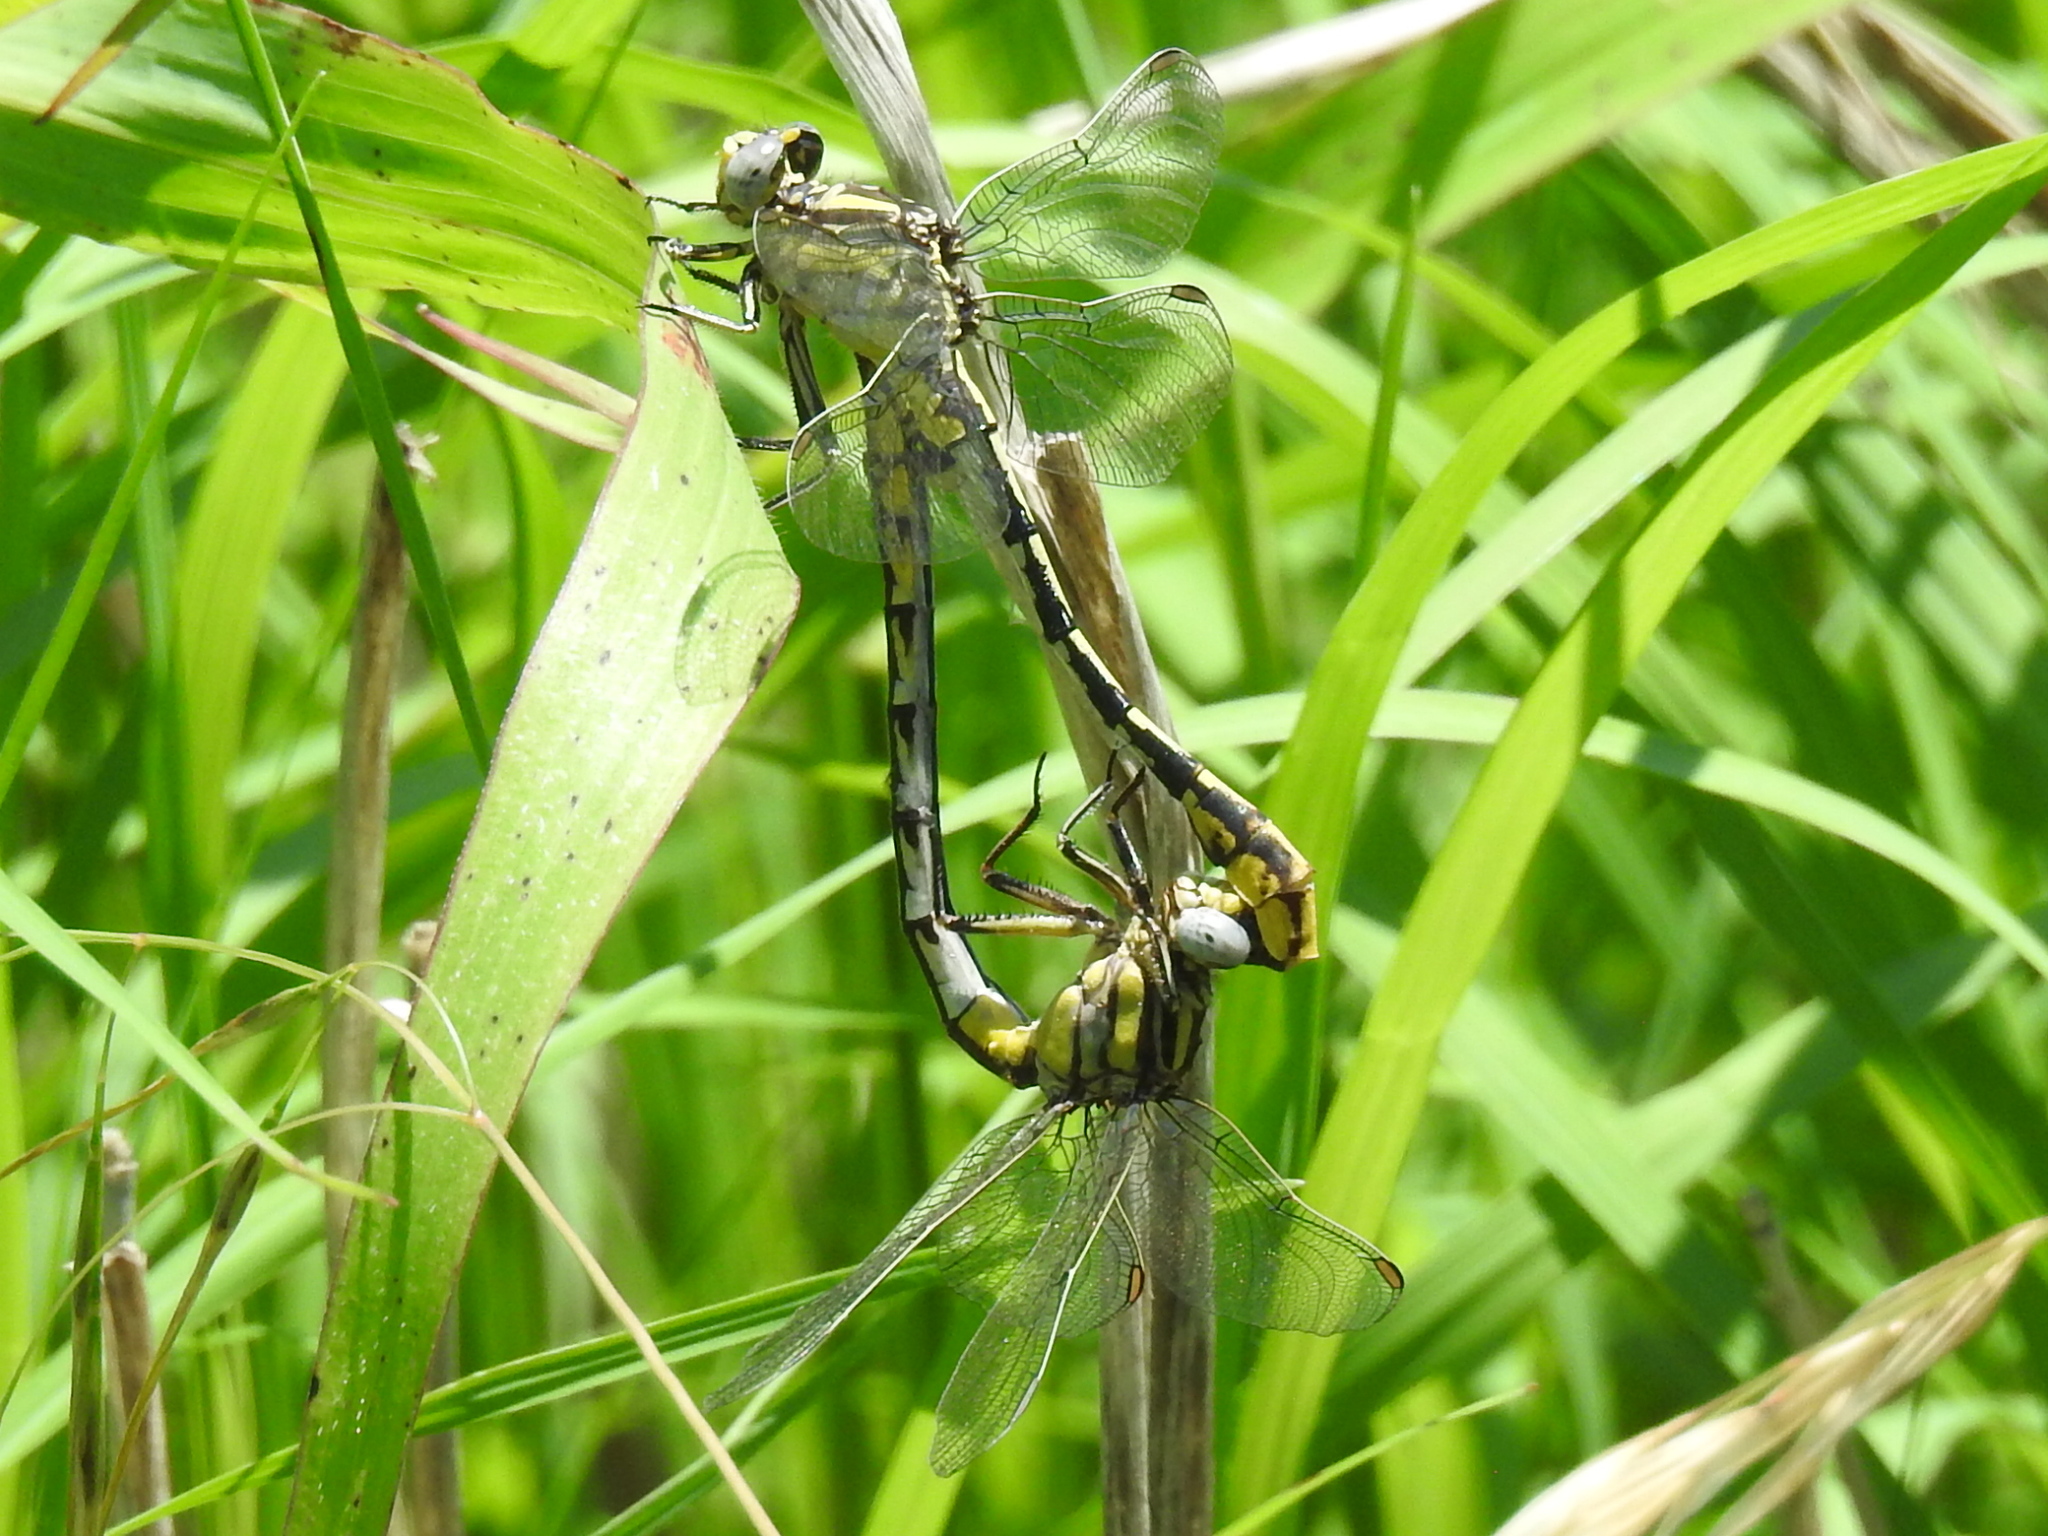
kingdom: Animalia
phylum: Arthropoda
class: Insecta
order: Odonata
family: Gomphidae
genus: Phanogomphus
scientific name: Phanogomphus militaris
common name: Sulphur-tipped clubtail
